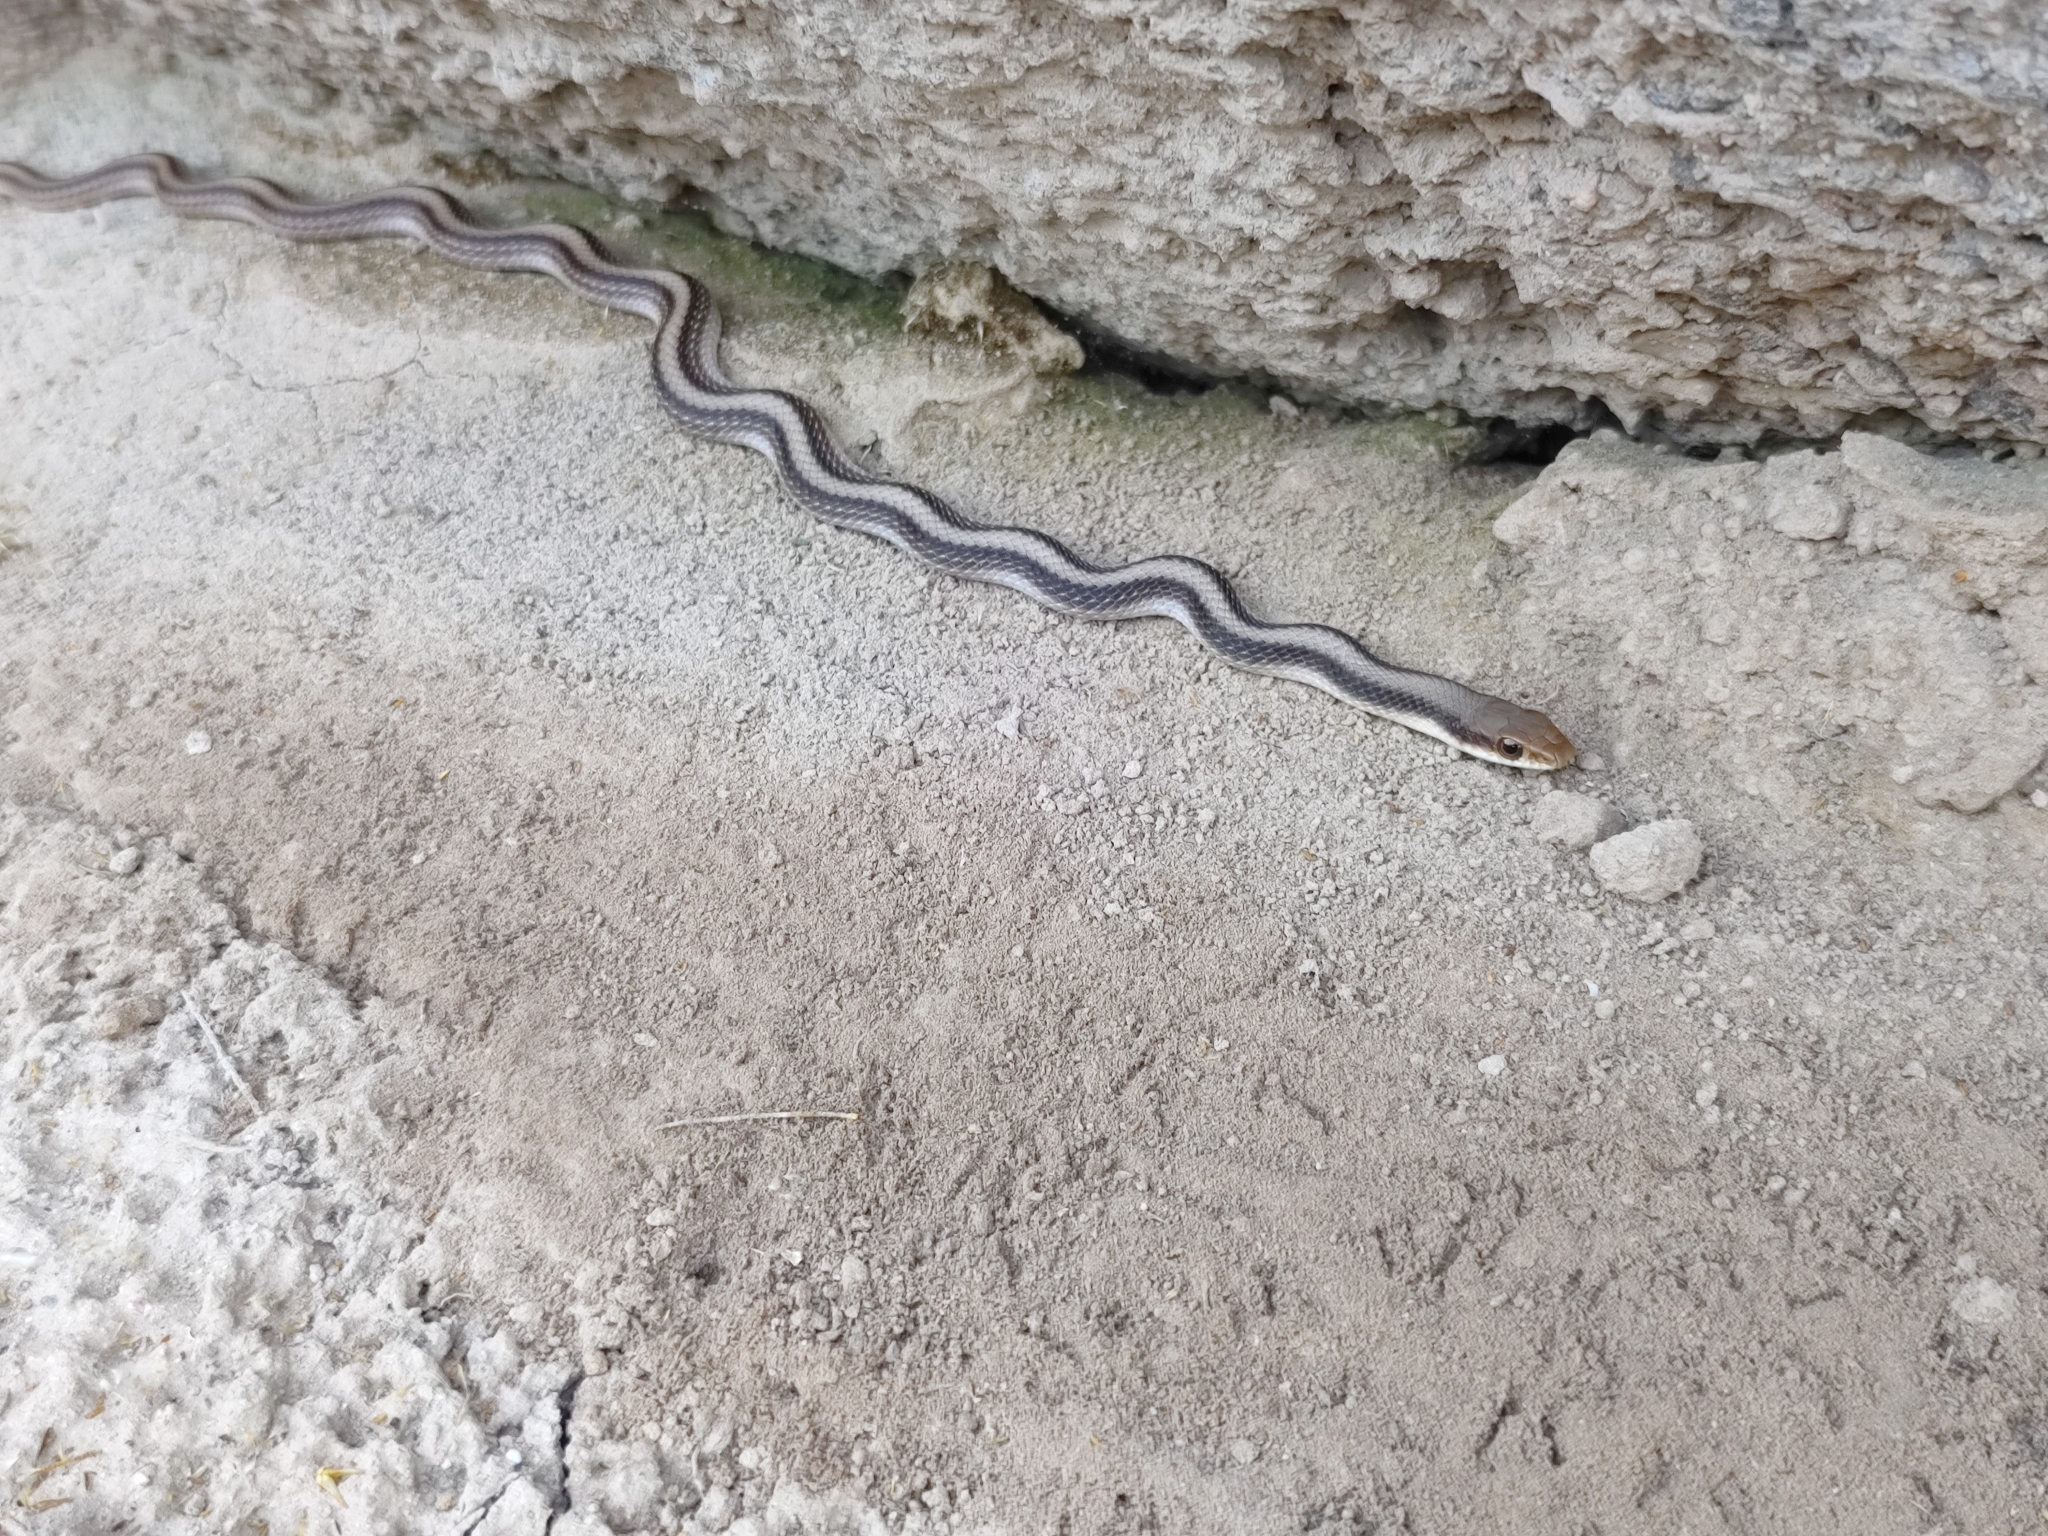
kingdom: Animalia
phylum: Chordata
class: Squamata
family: Colubridae
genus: Salvadora
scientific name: Salvadora hexalepis
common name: Western patchnose snake
